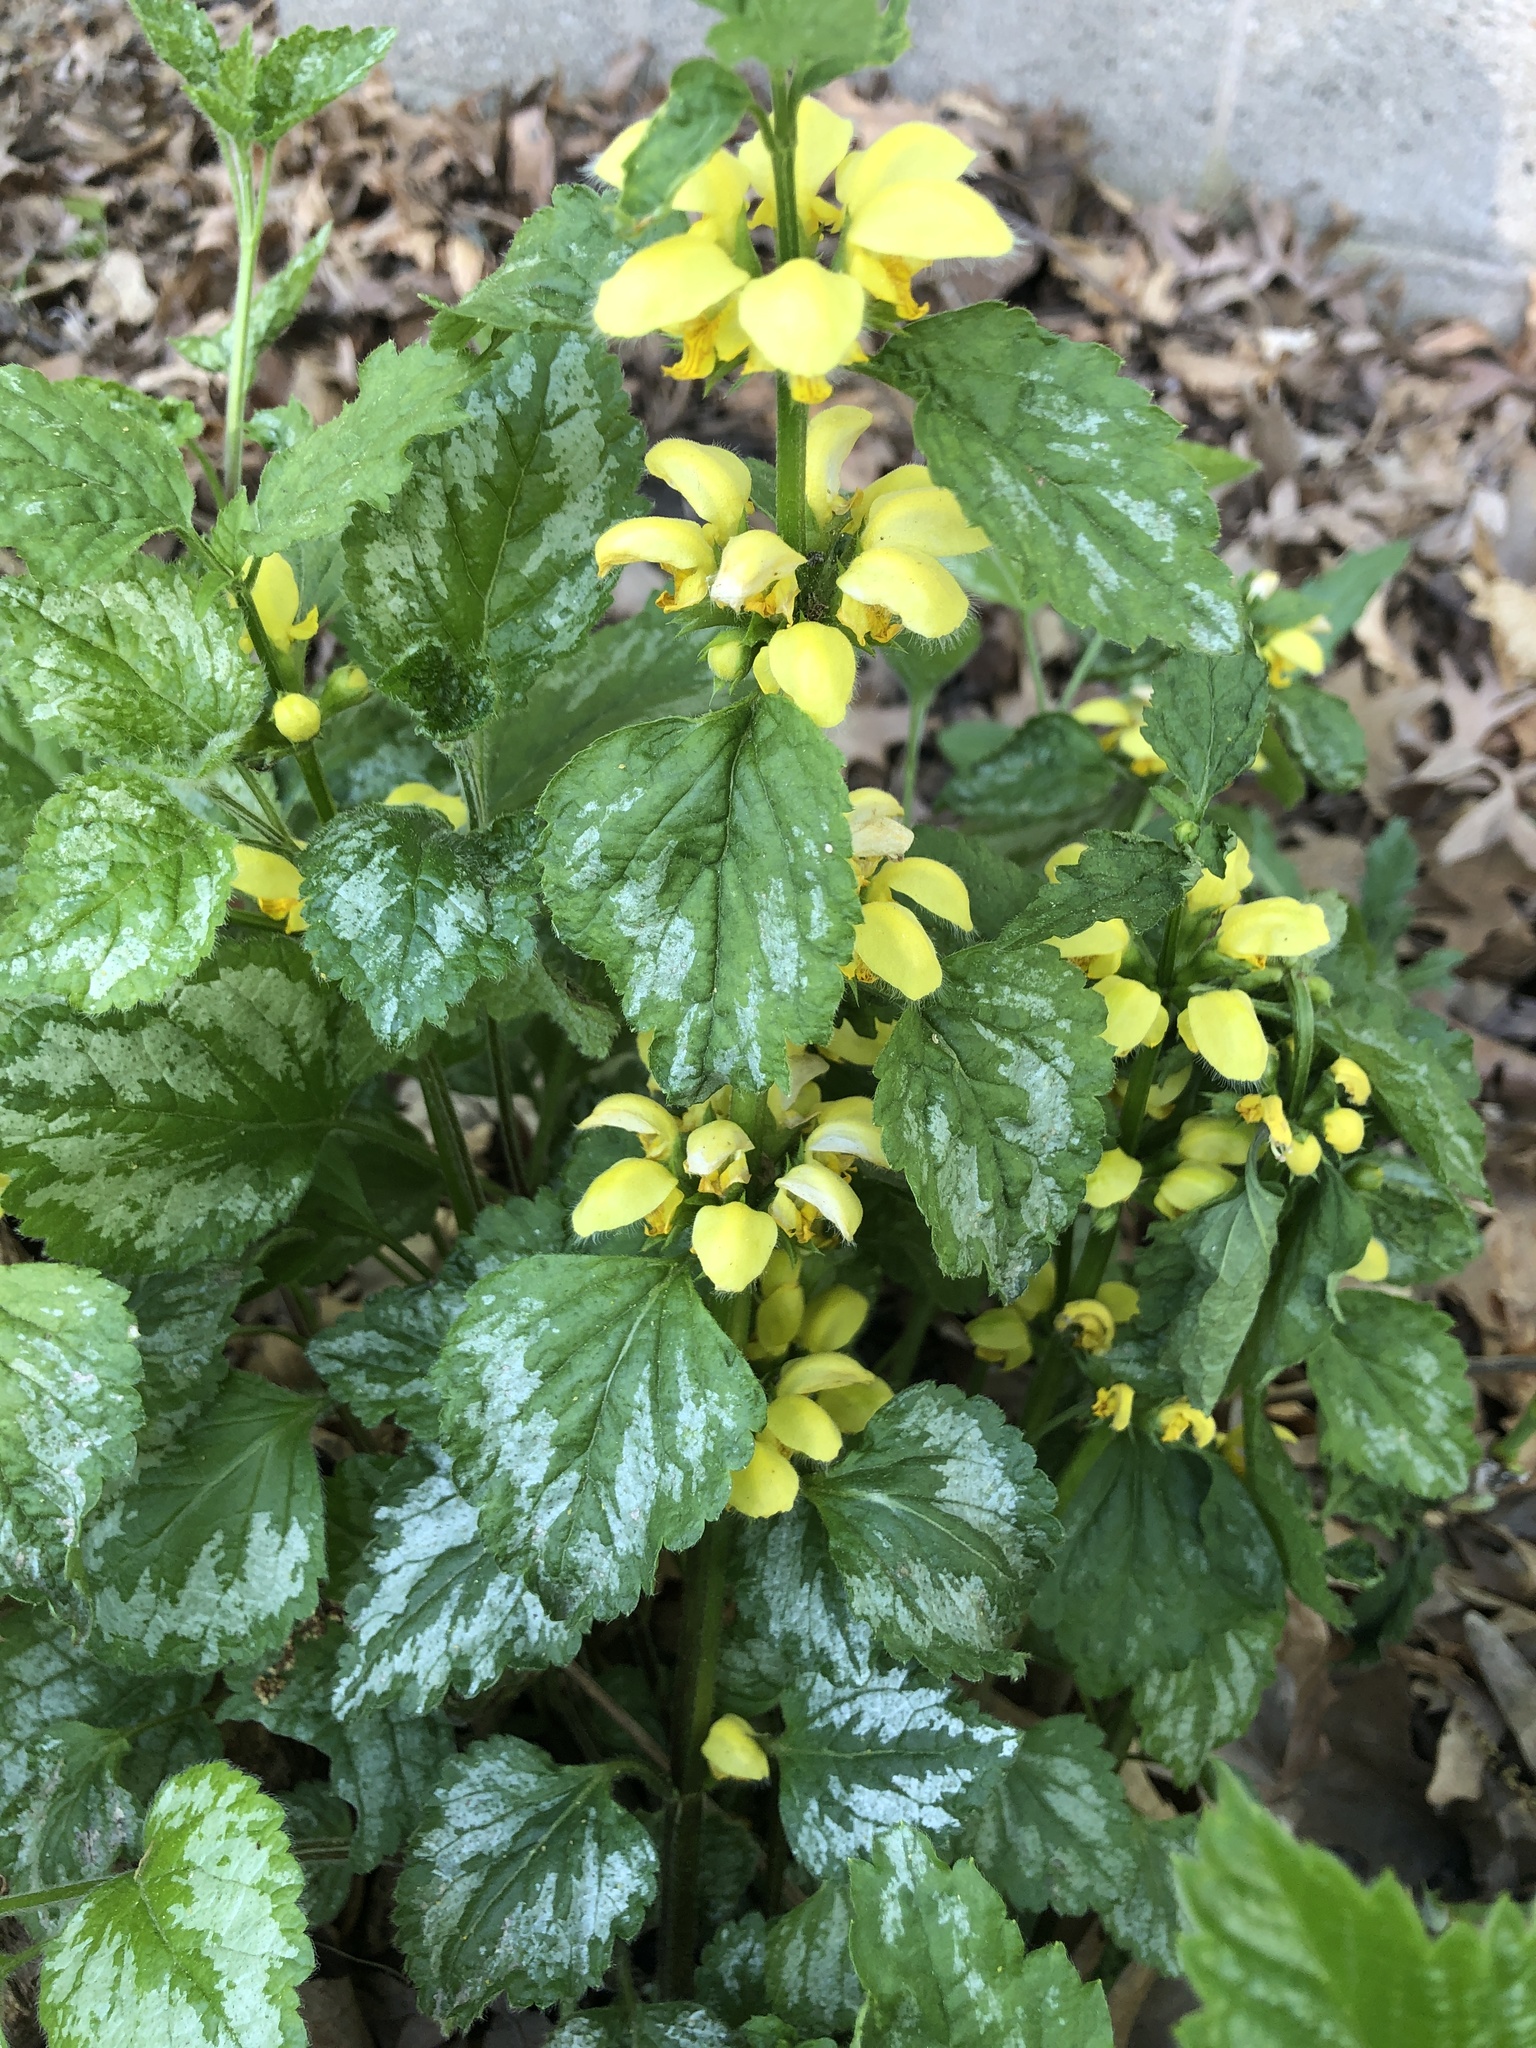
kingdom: Plantae
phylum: Tracheophyta
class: Magnoliopsida
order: Lamiales
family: Lamiaceae
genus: Lamium
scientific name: Lamium galeobdolon
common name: Yellow archangel
